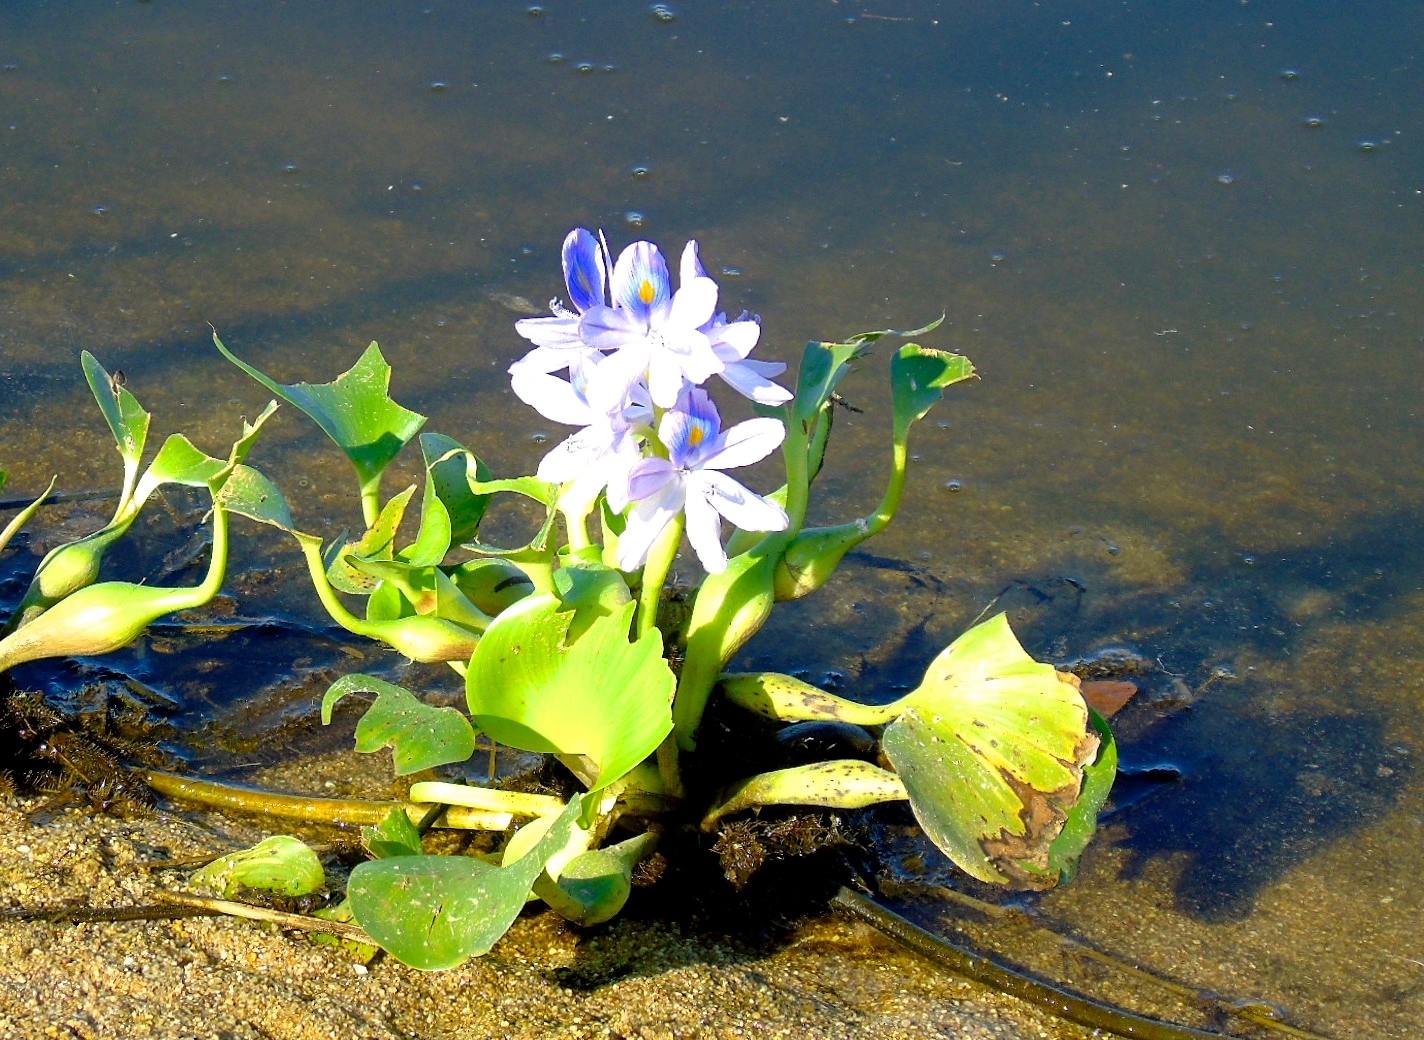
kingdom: Plantae
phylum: Tracheophyta
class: Liliopsida
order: Commelinales
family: Pontederiaceae
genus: Pontederia
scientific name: Pontederia crassipes
